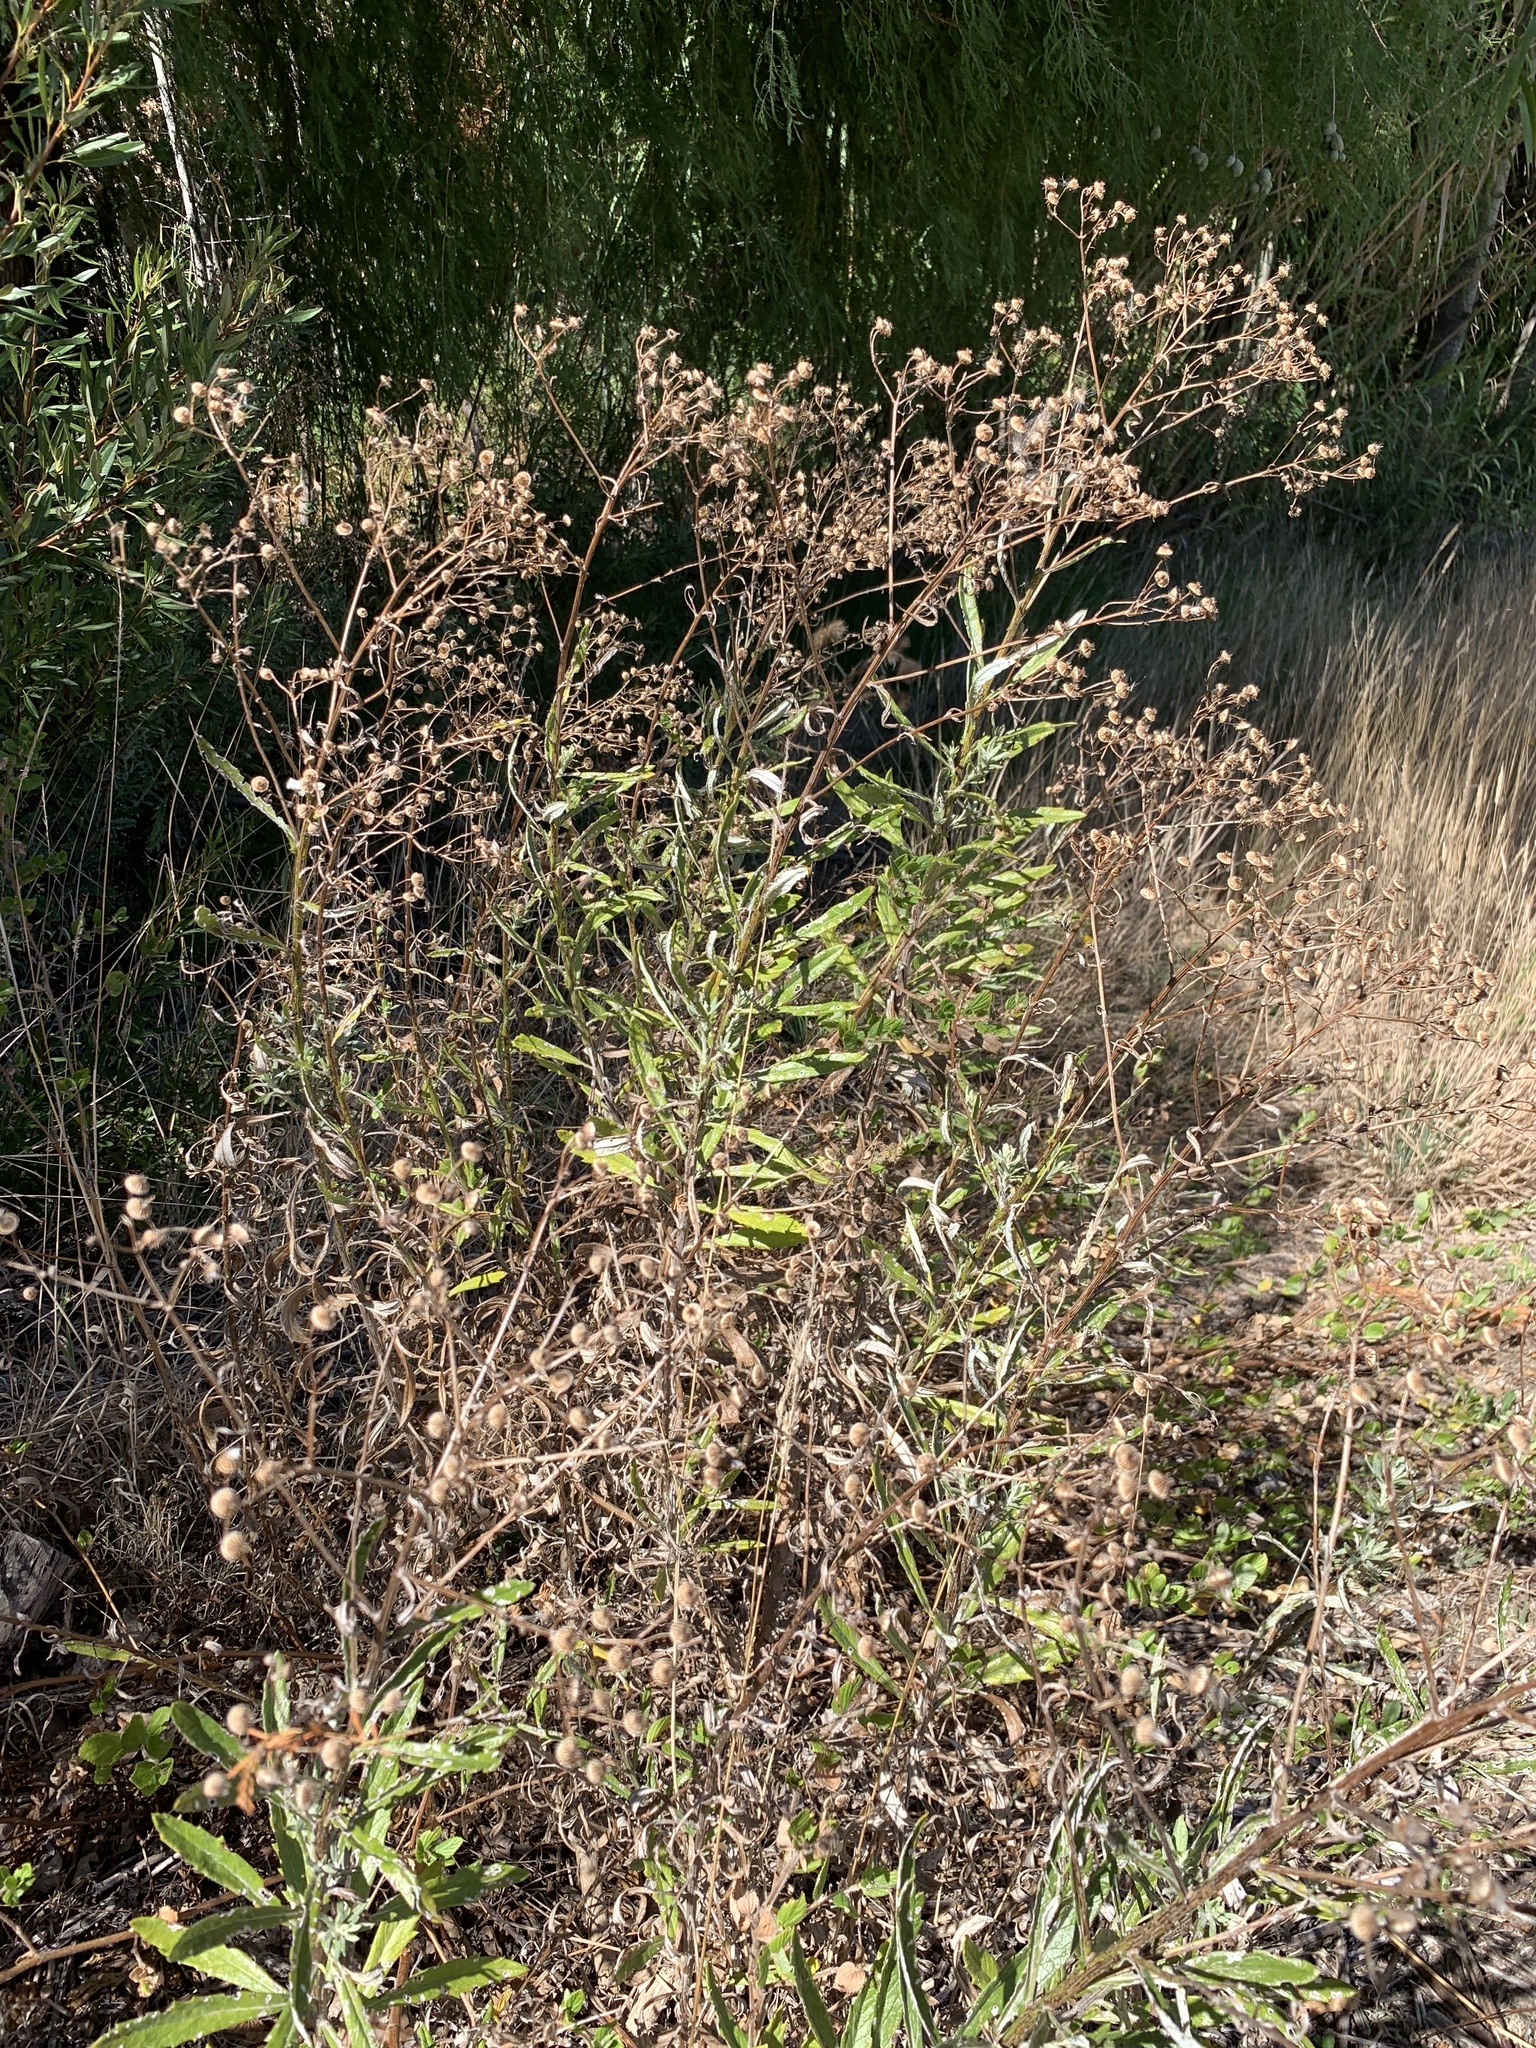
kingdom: Plantae
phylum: Tracheophyta
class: Magnoliopsida
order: Asterales
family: Asteraceae
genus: Senecio
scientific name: Senecio pterophorus
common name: Shoddy ragwort
